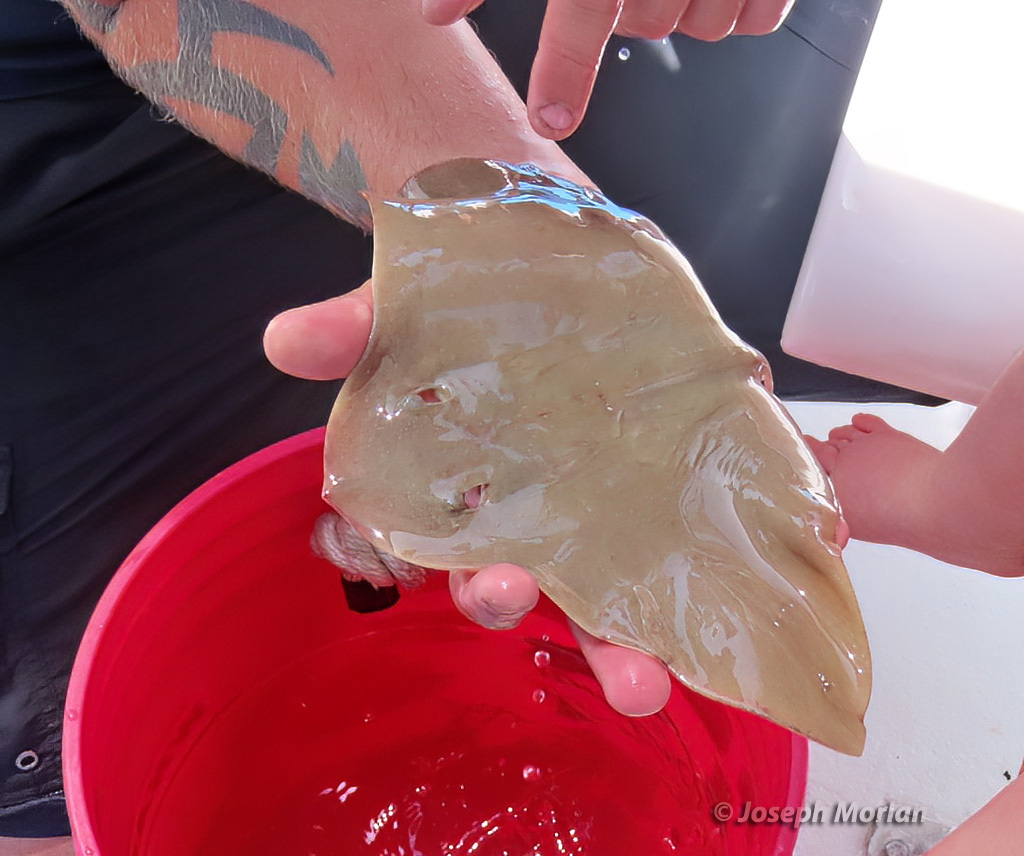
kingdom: Animalia
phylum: Chordata
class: Elasmobranchii
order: Myliobatiformes
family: Gymnuridae
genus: Gymnura
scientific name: Gymnura lessae
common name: Lessa's butterfly ray
